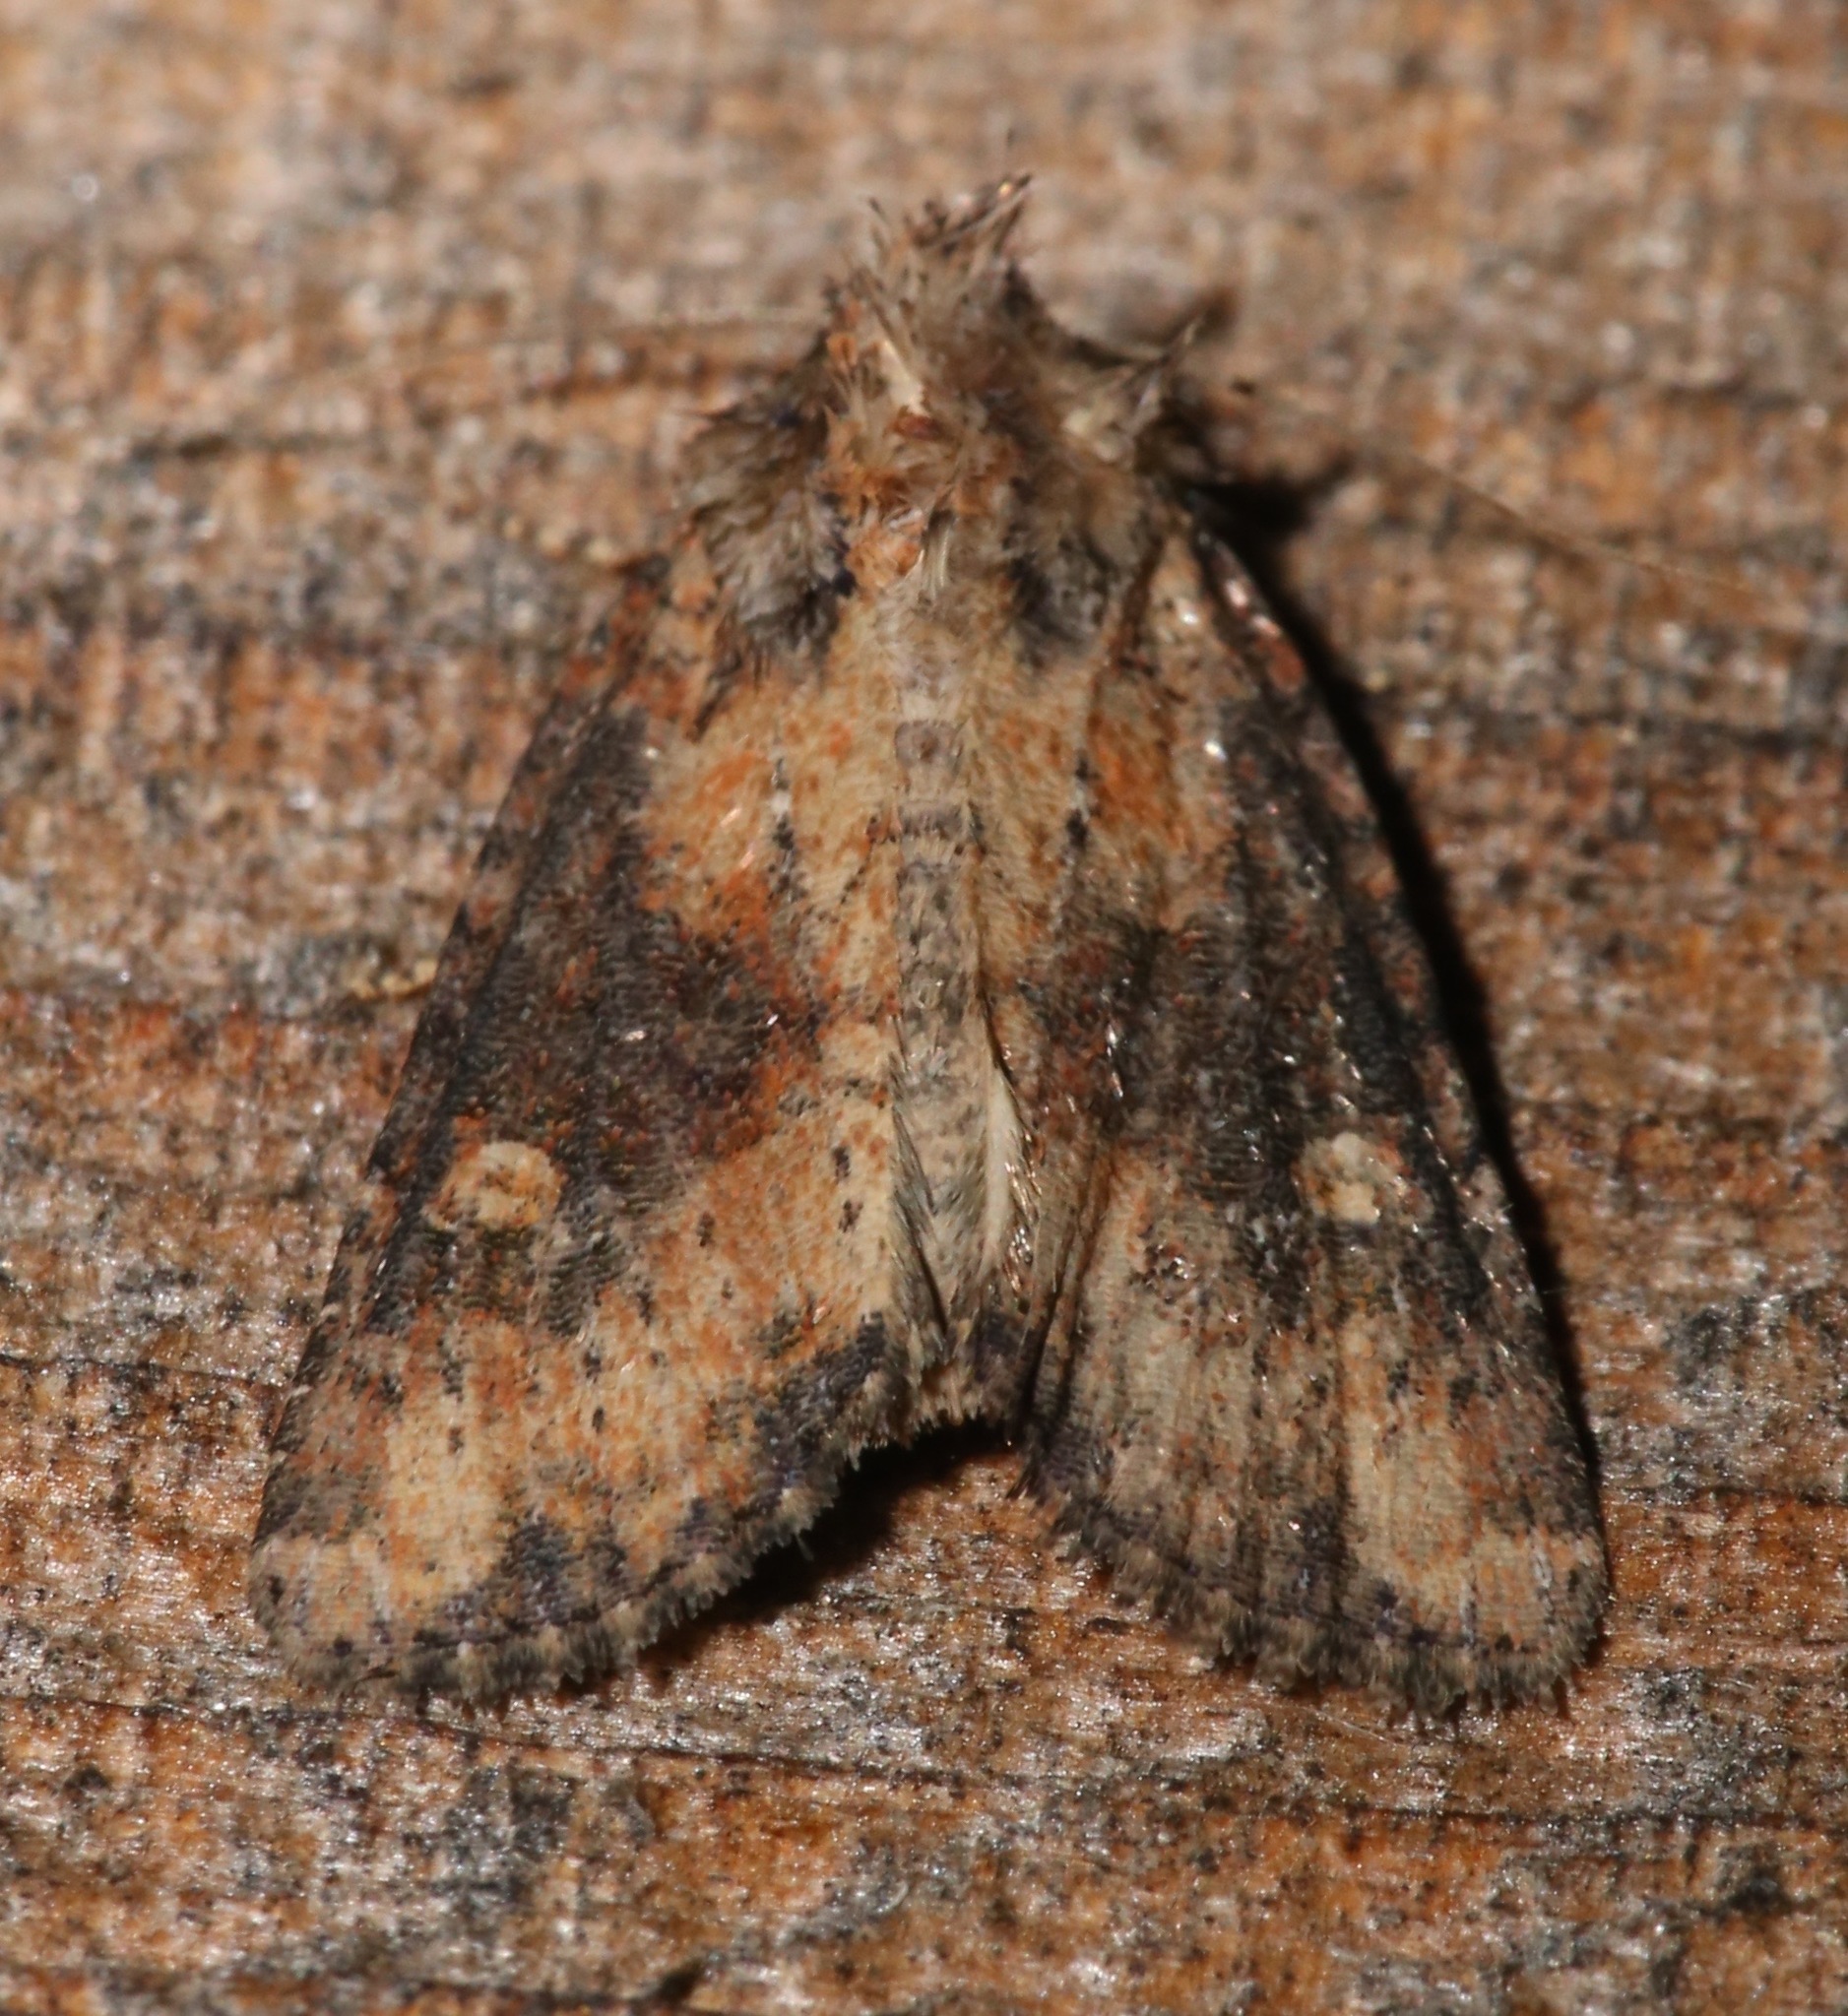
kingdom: Animalia
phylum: Arthropoda
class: Insecta
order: Lepidoptera
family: Noctuidae
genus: Mesapamea
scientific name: Mesapamea fractilinea
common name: Broken-lined brocade moth
